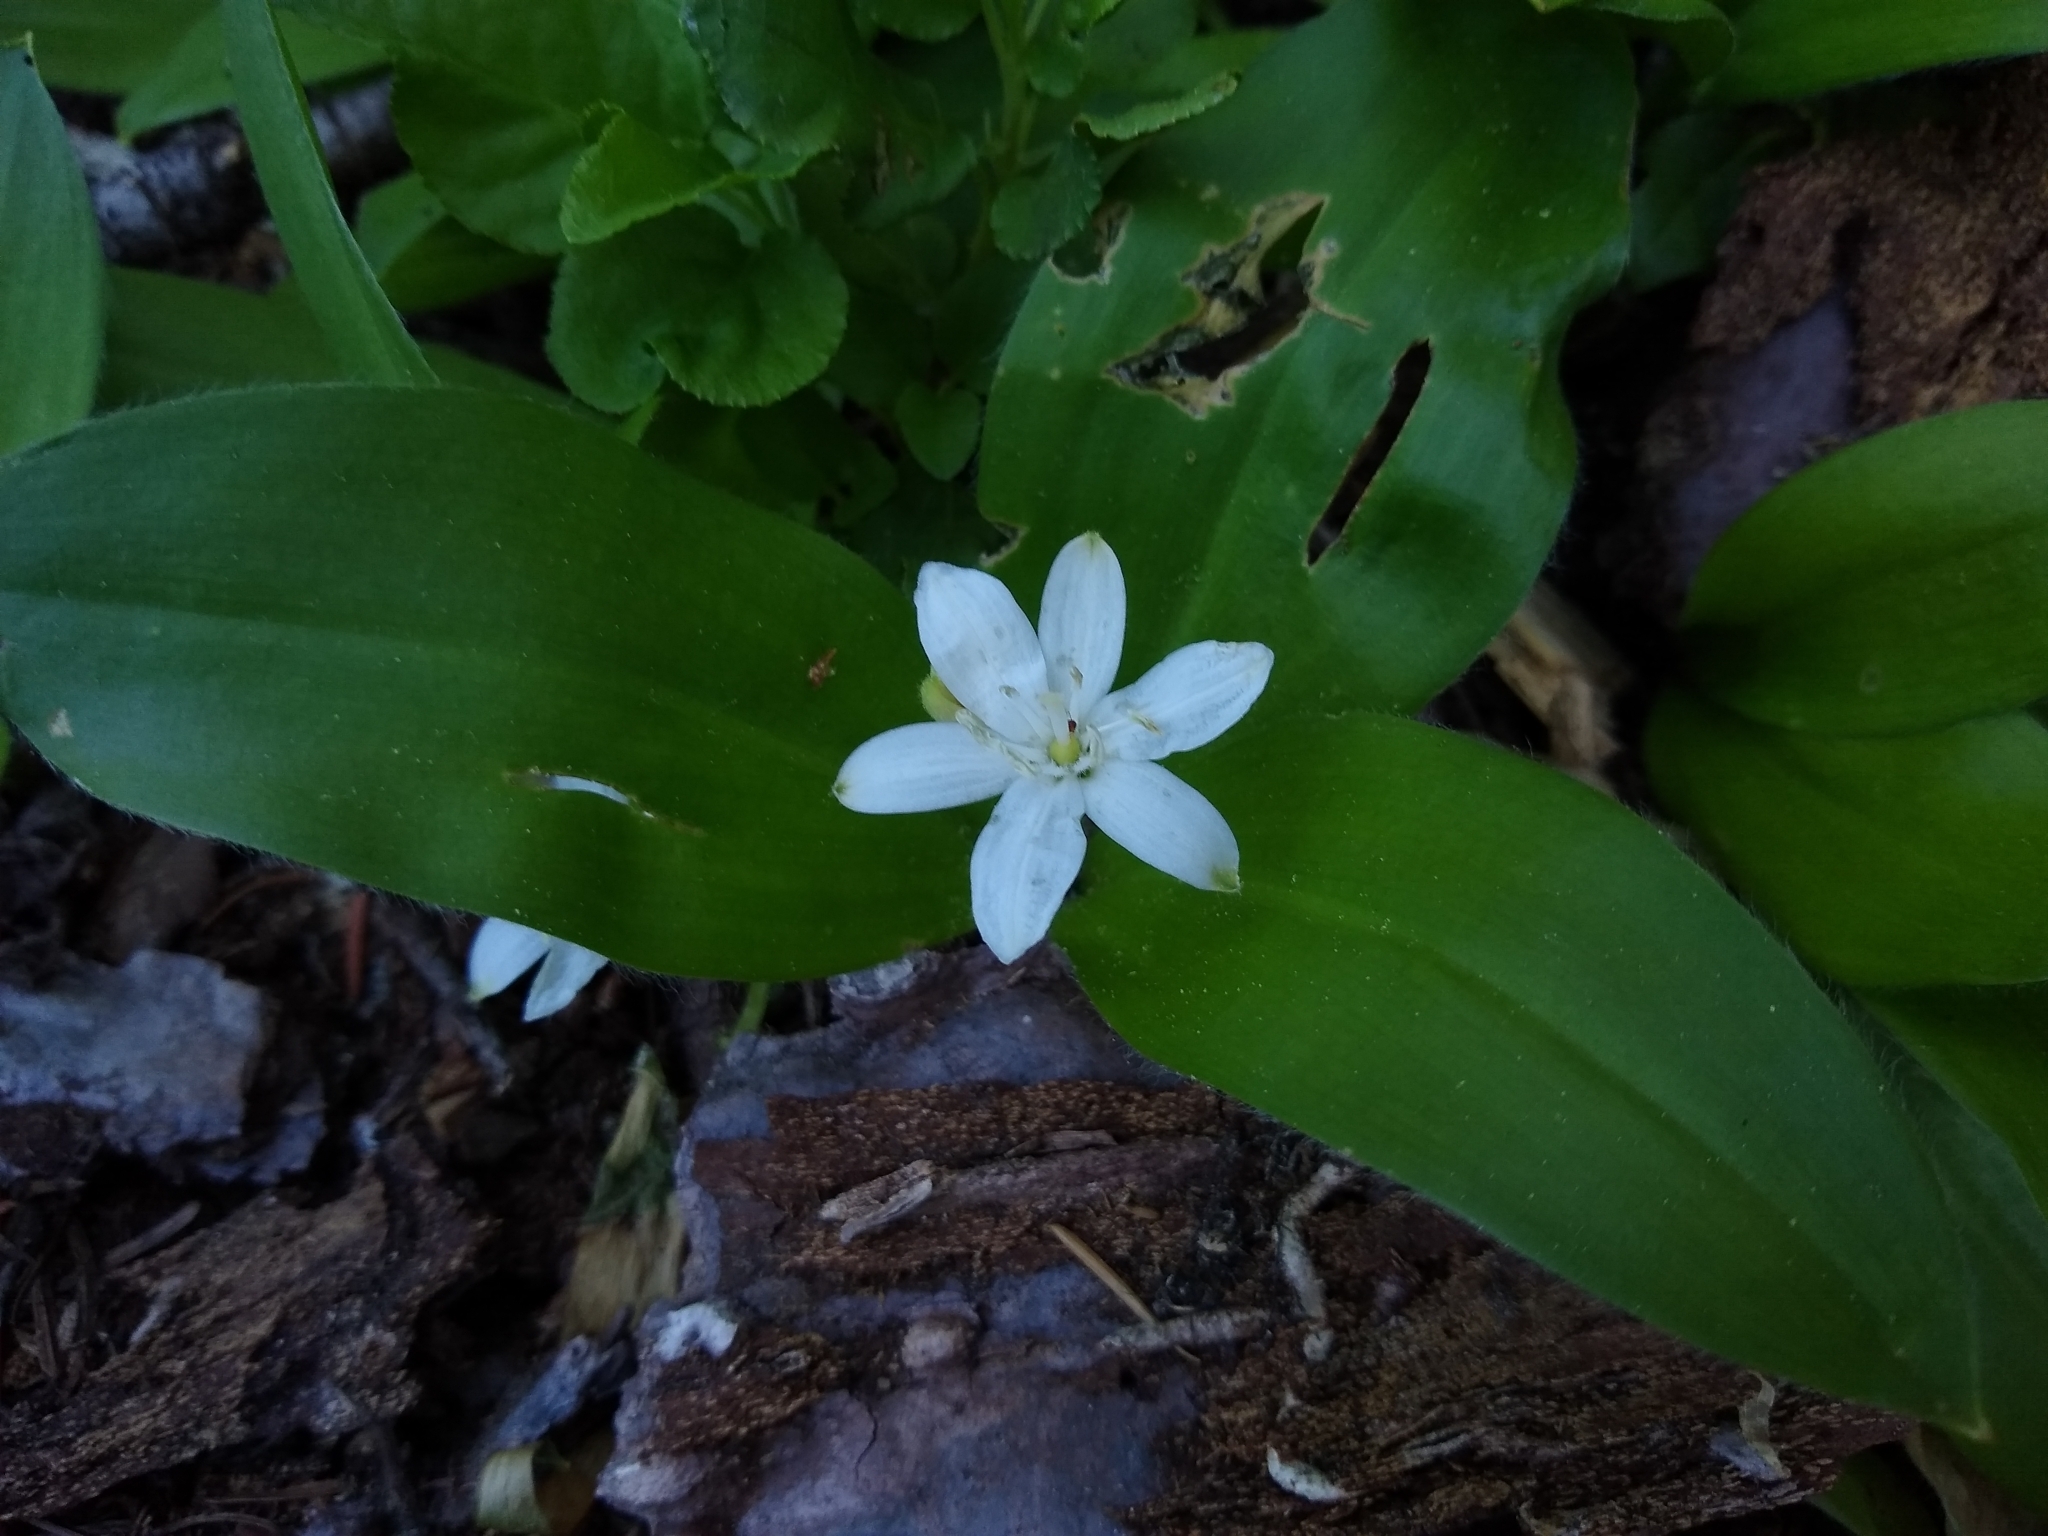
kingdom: Plantae
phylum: Tracheophyta
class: Liliopsida
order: Liliales
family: Liliaceae
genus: Clintonia
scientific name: Clintonia uniflora
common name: Queen's cup
